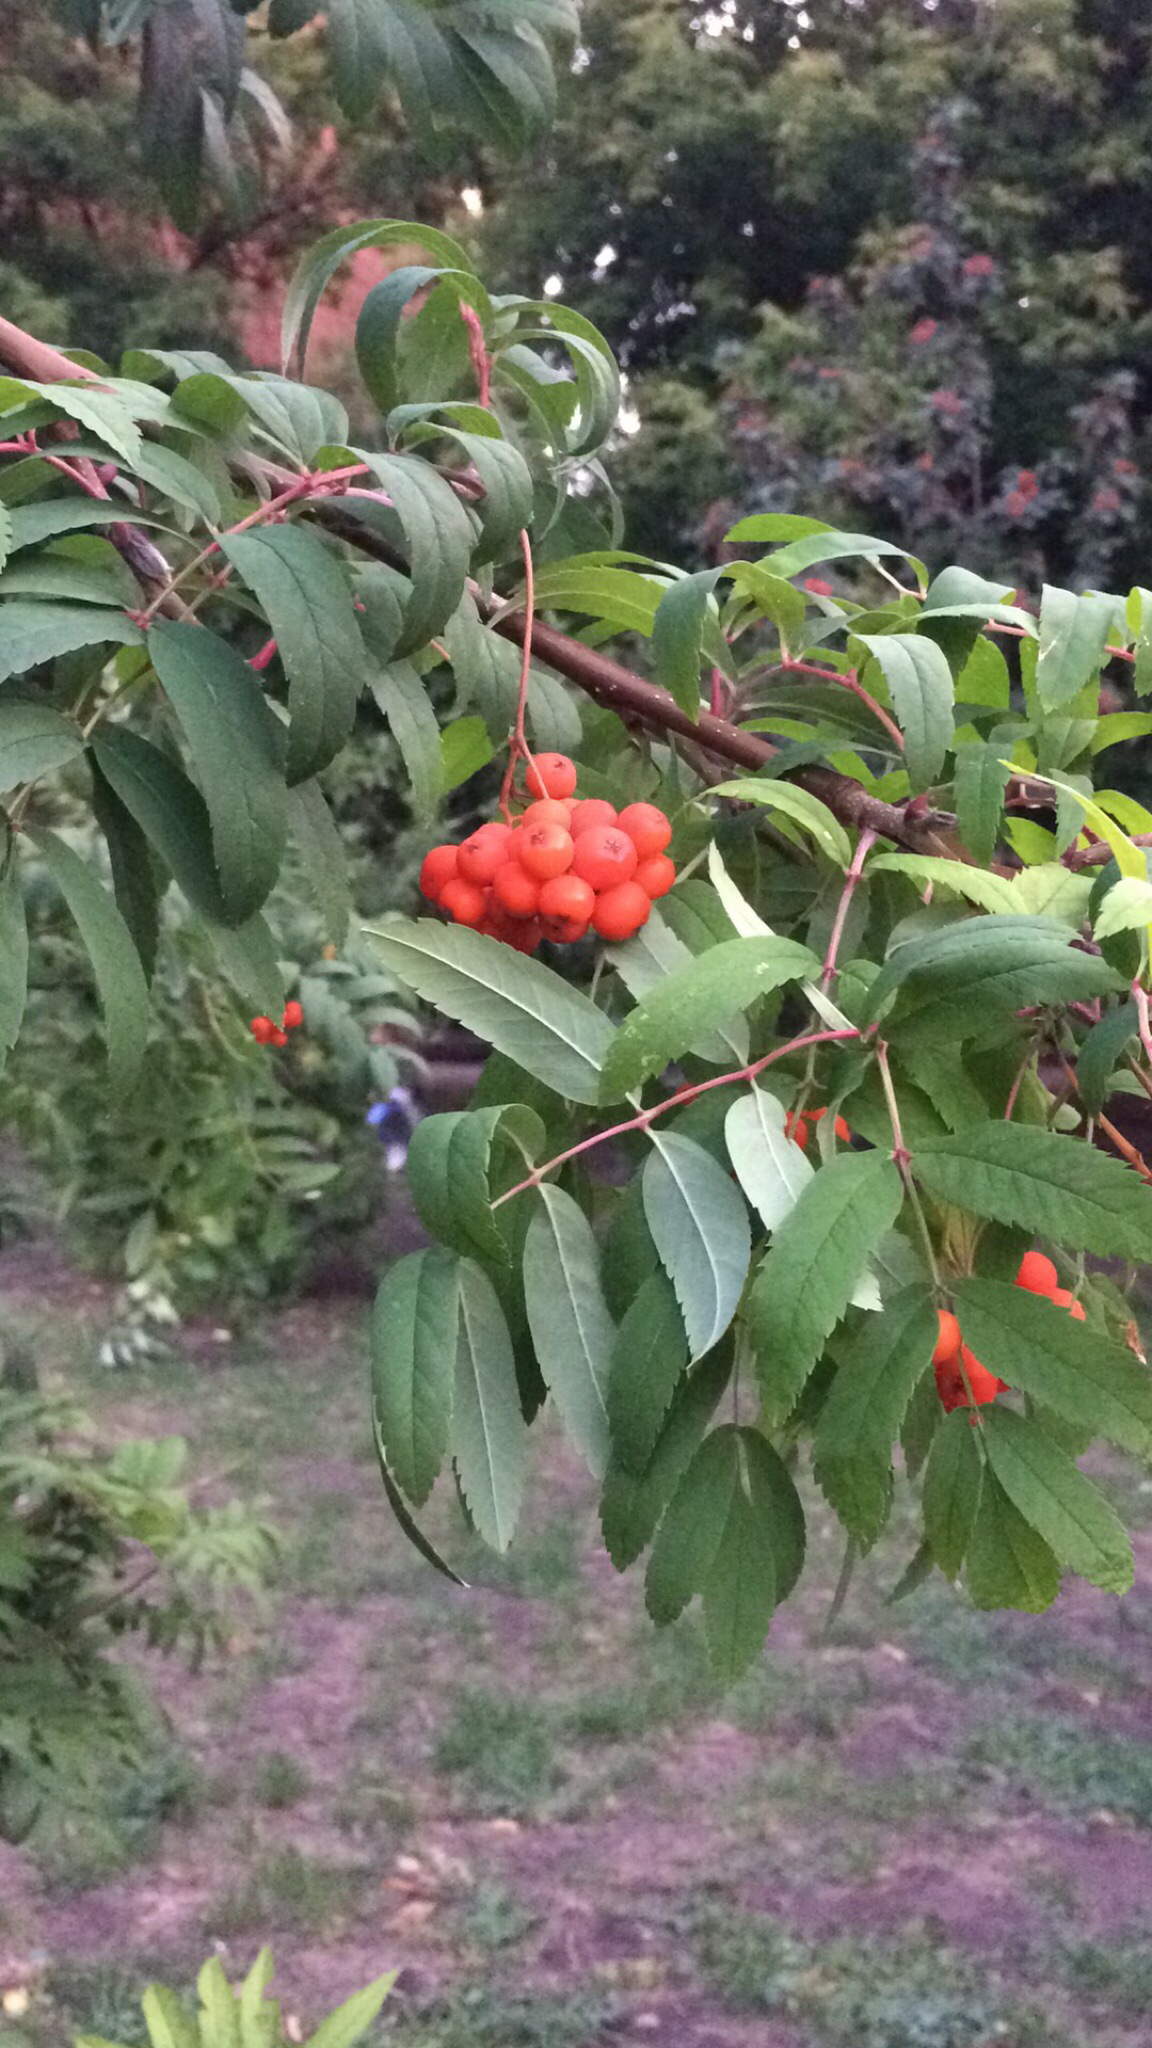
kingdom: Plantae
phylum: Tracheophyta
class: Magnoliopsida
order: Rosales
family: Rosaceae
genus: Sorbus
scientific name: Sorbus aucuparia
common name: Rowan
